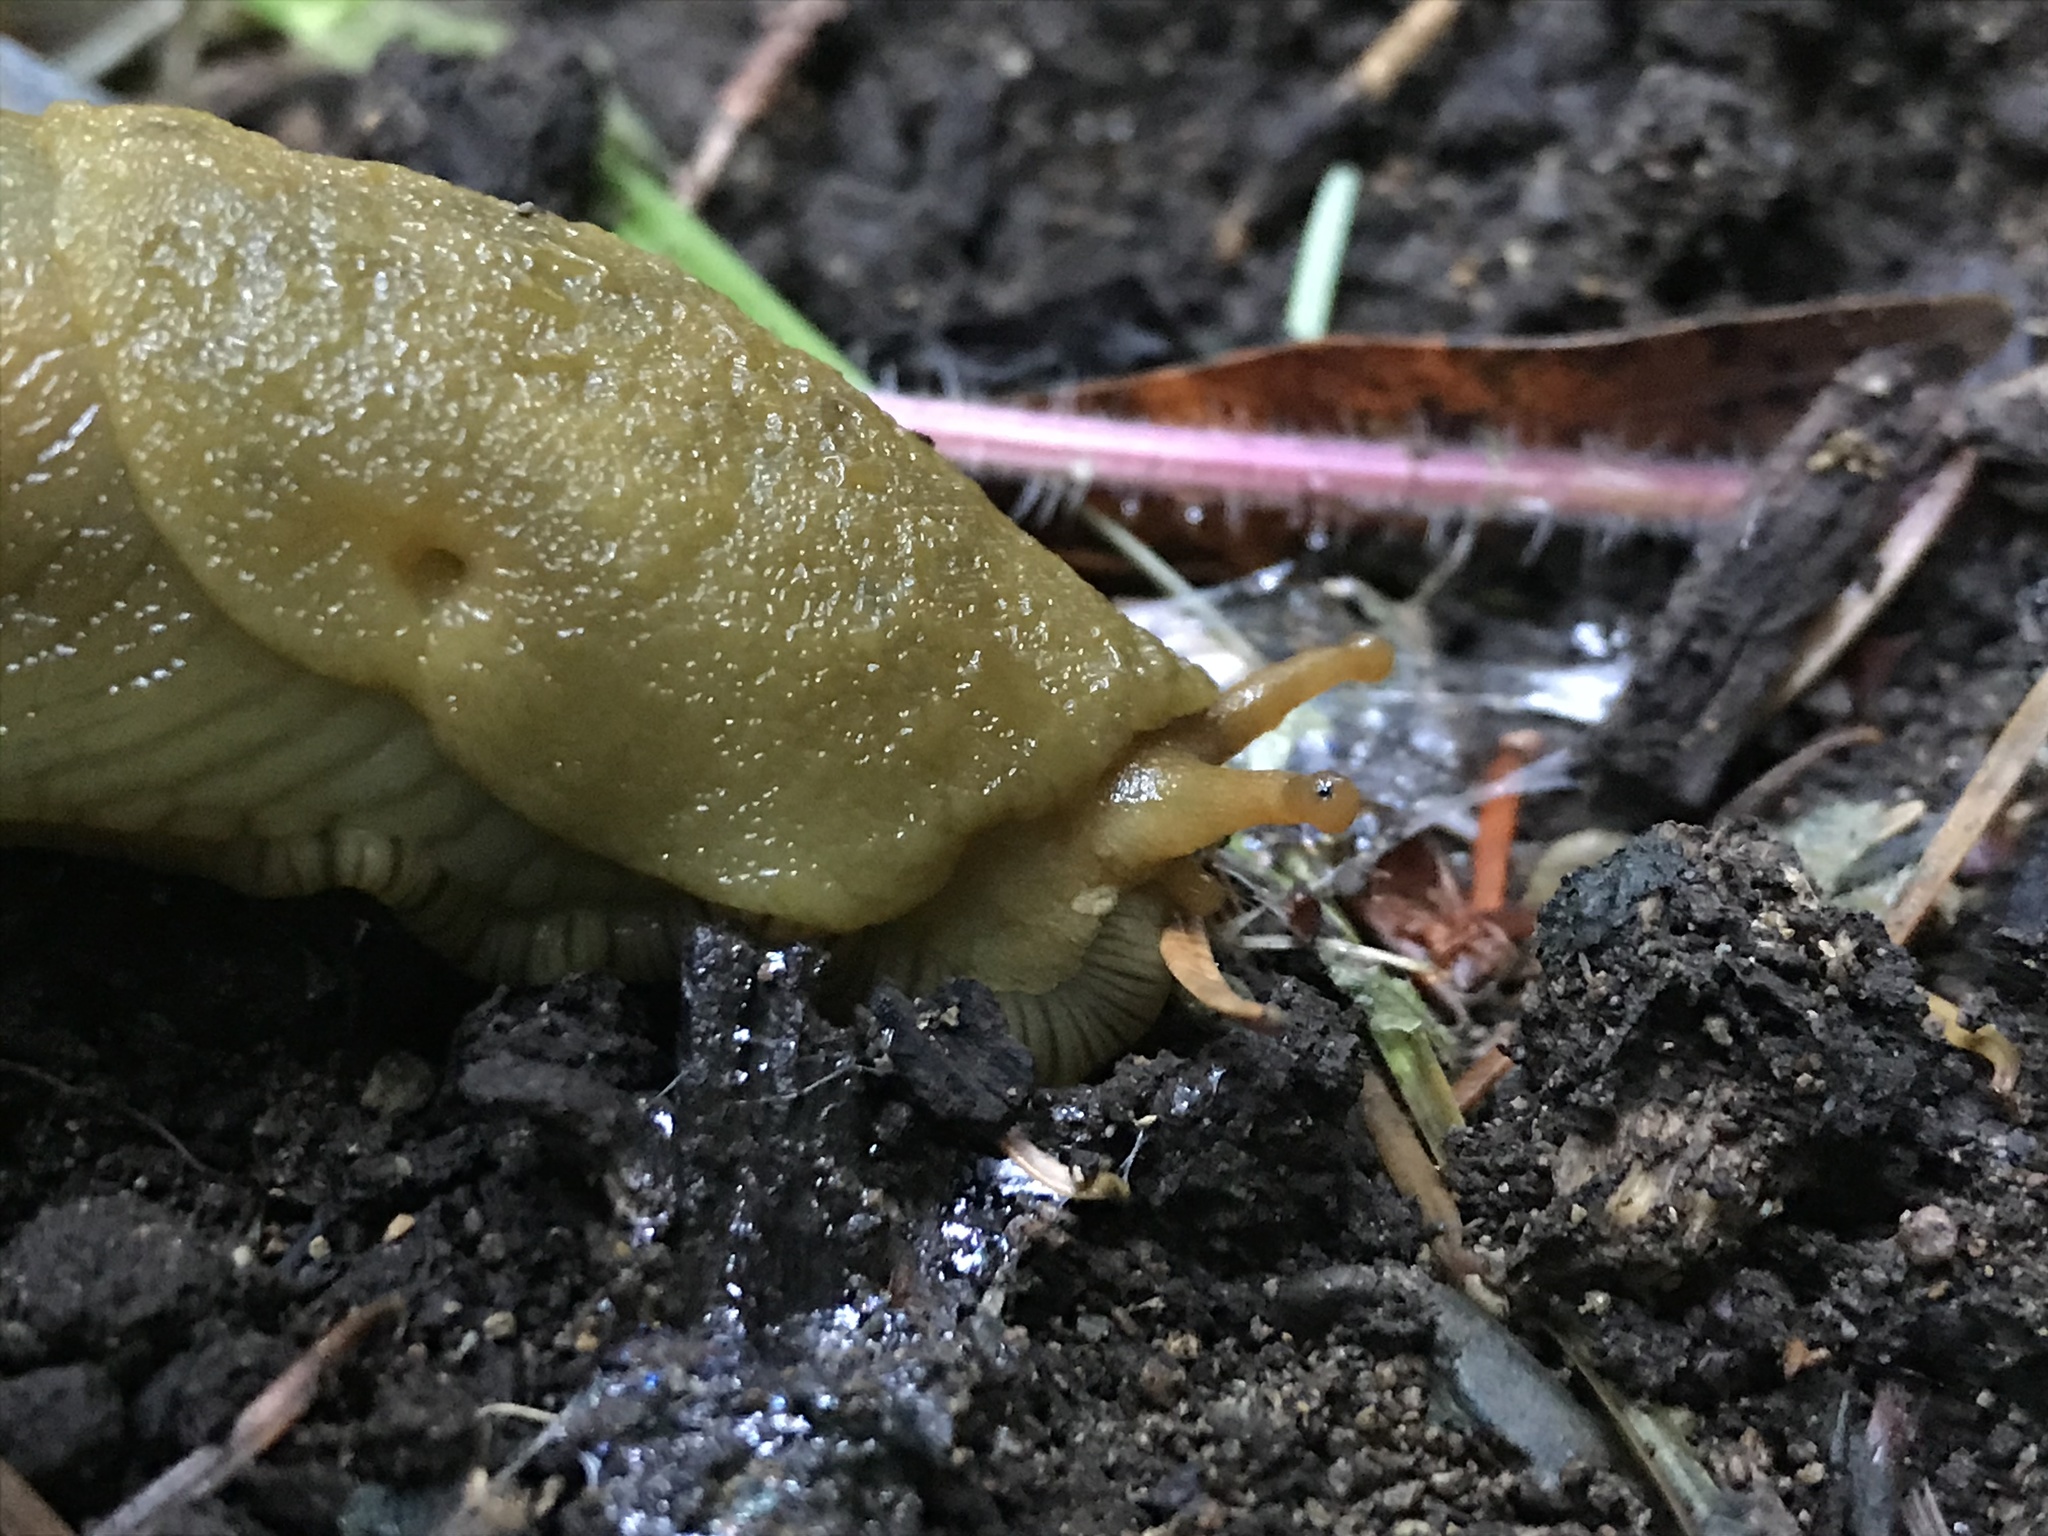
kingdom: Animalia
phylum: Mollusca
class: Gastropoda
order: Stylommatophora
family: Ariolimacidae
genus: Ariolimax
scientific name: Ariolimax buttoni
